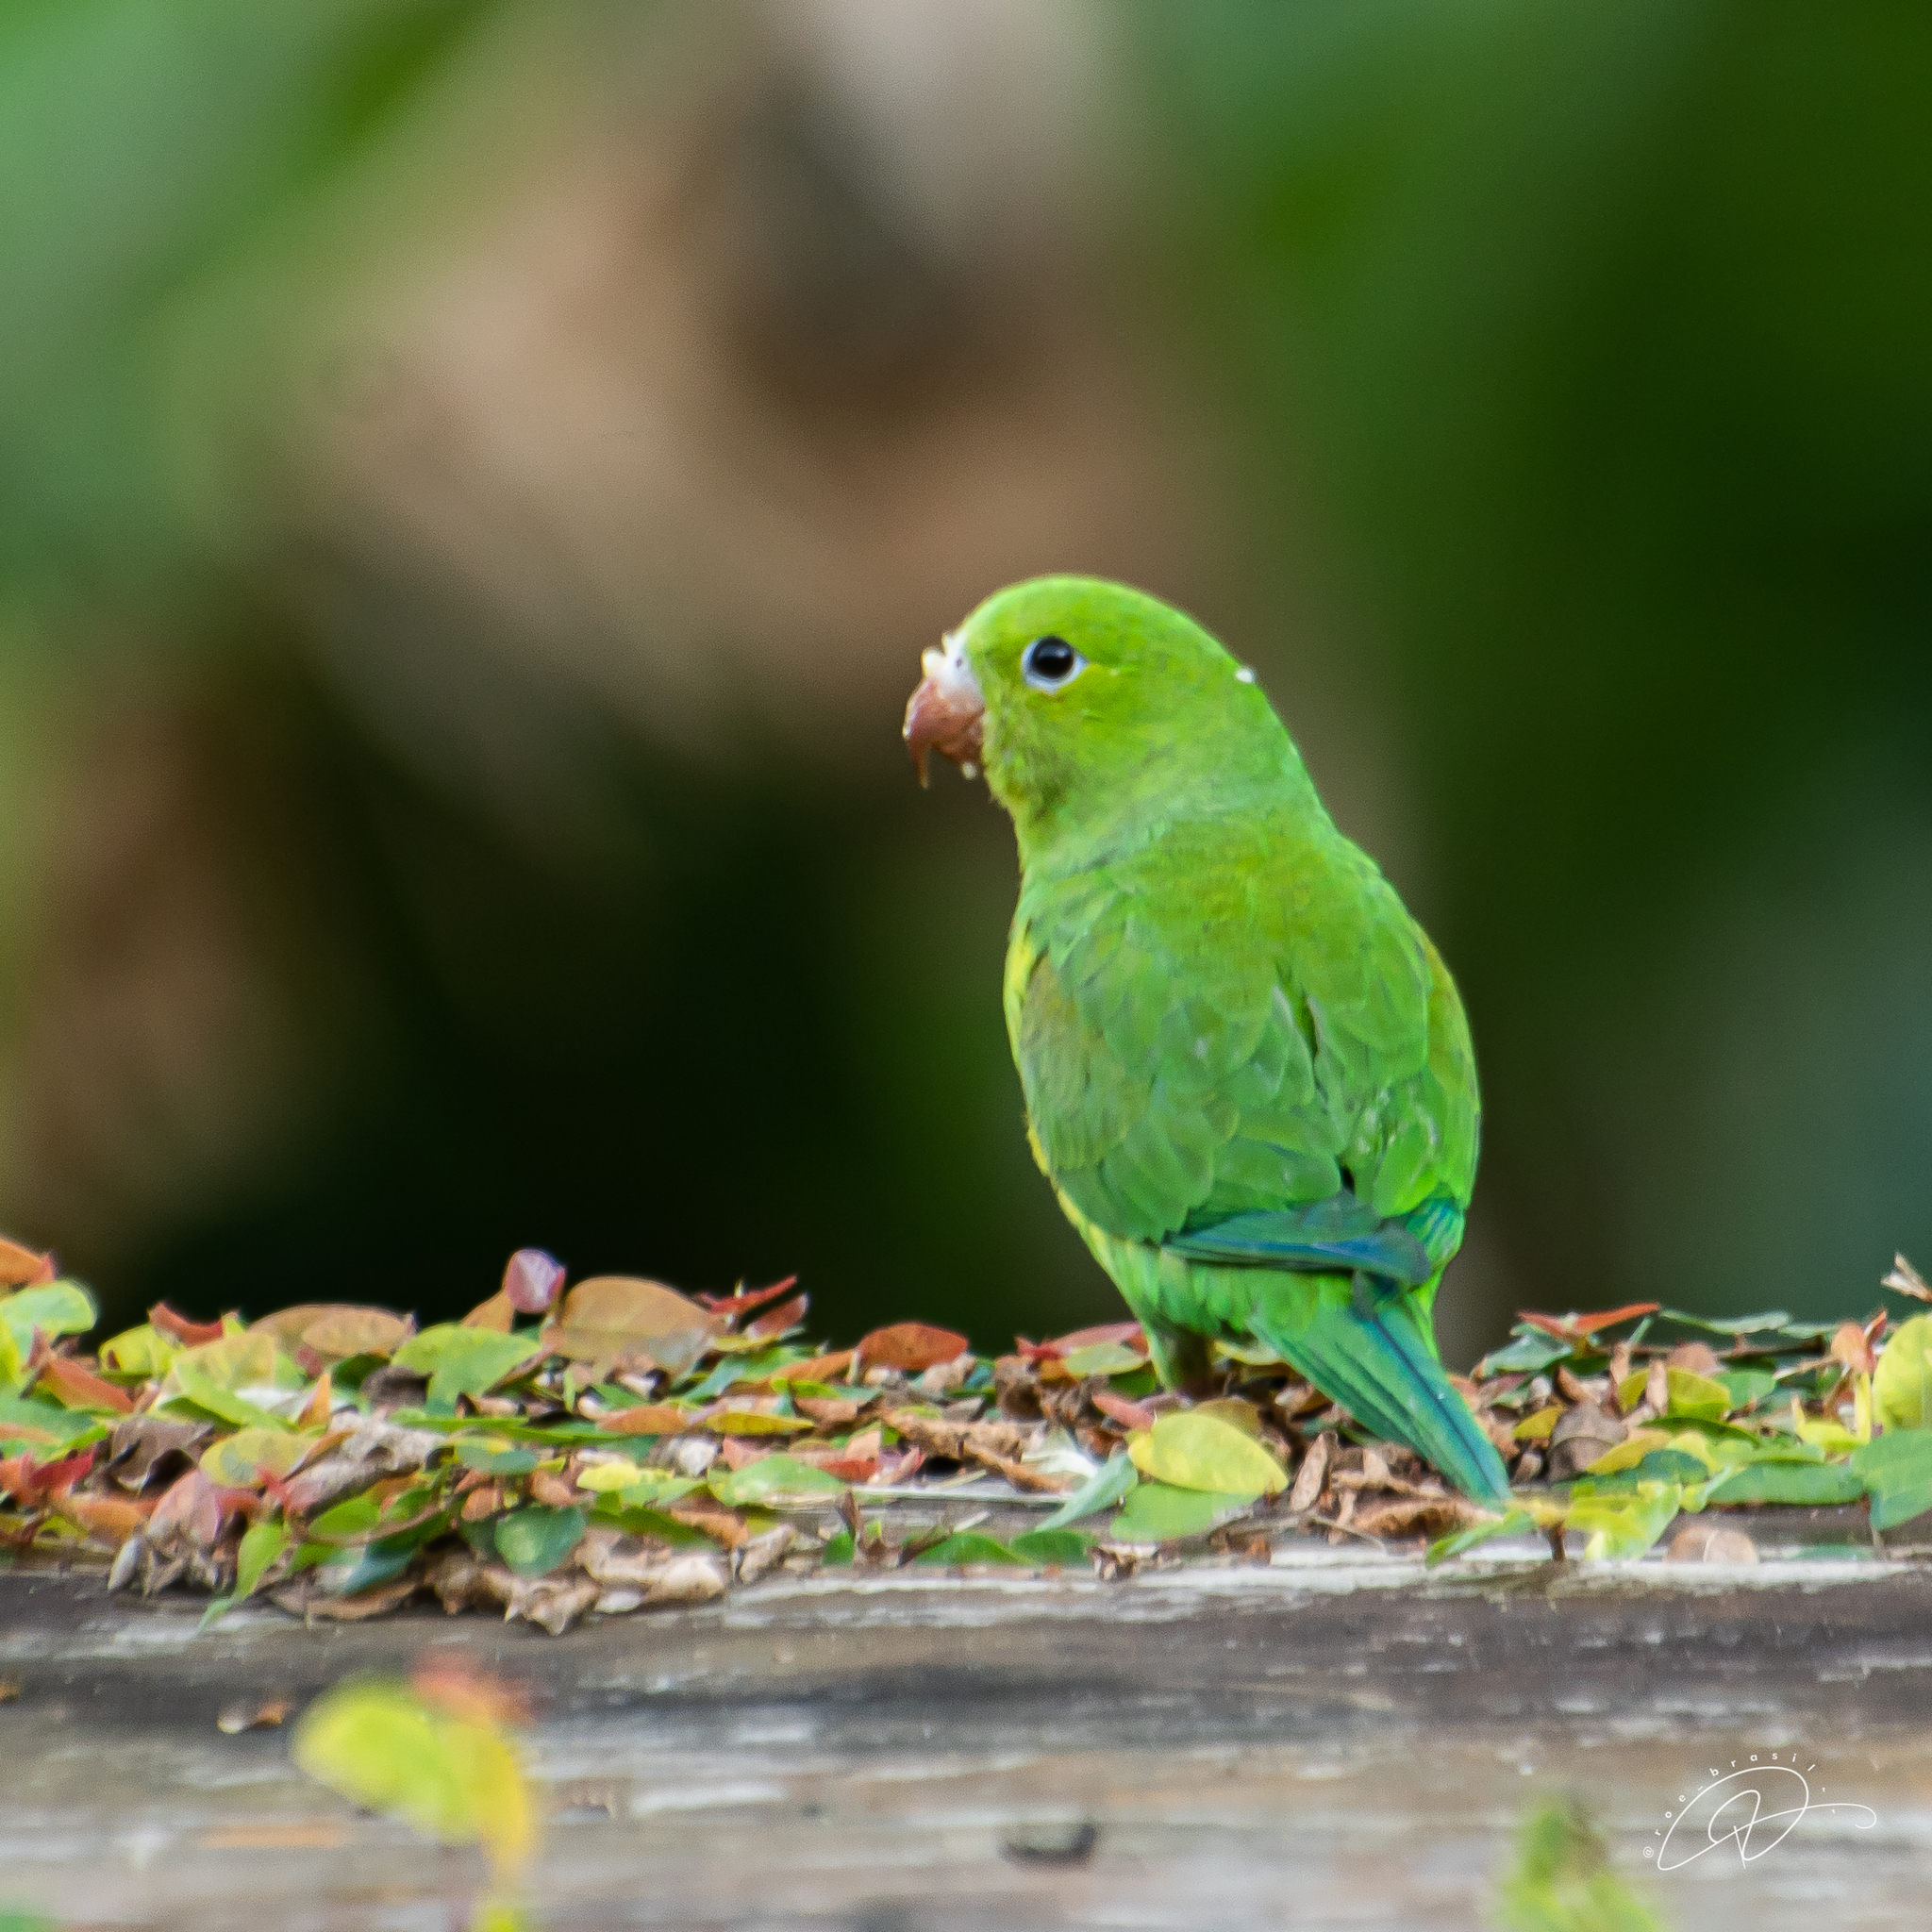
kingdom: Animalia
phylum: Chordata
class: Aves
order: Psittaciformes
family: Psittacidae
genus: Brotogeris
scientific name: Brotogeris tirica
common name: Plain parakeet
